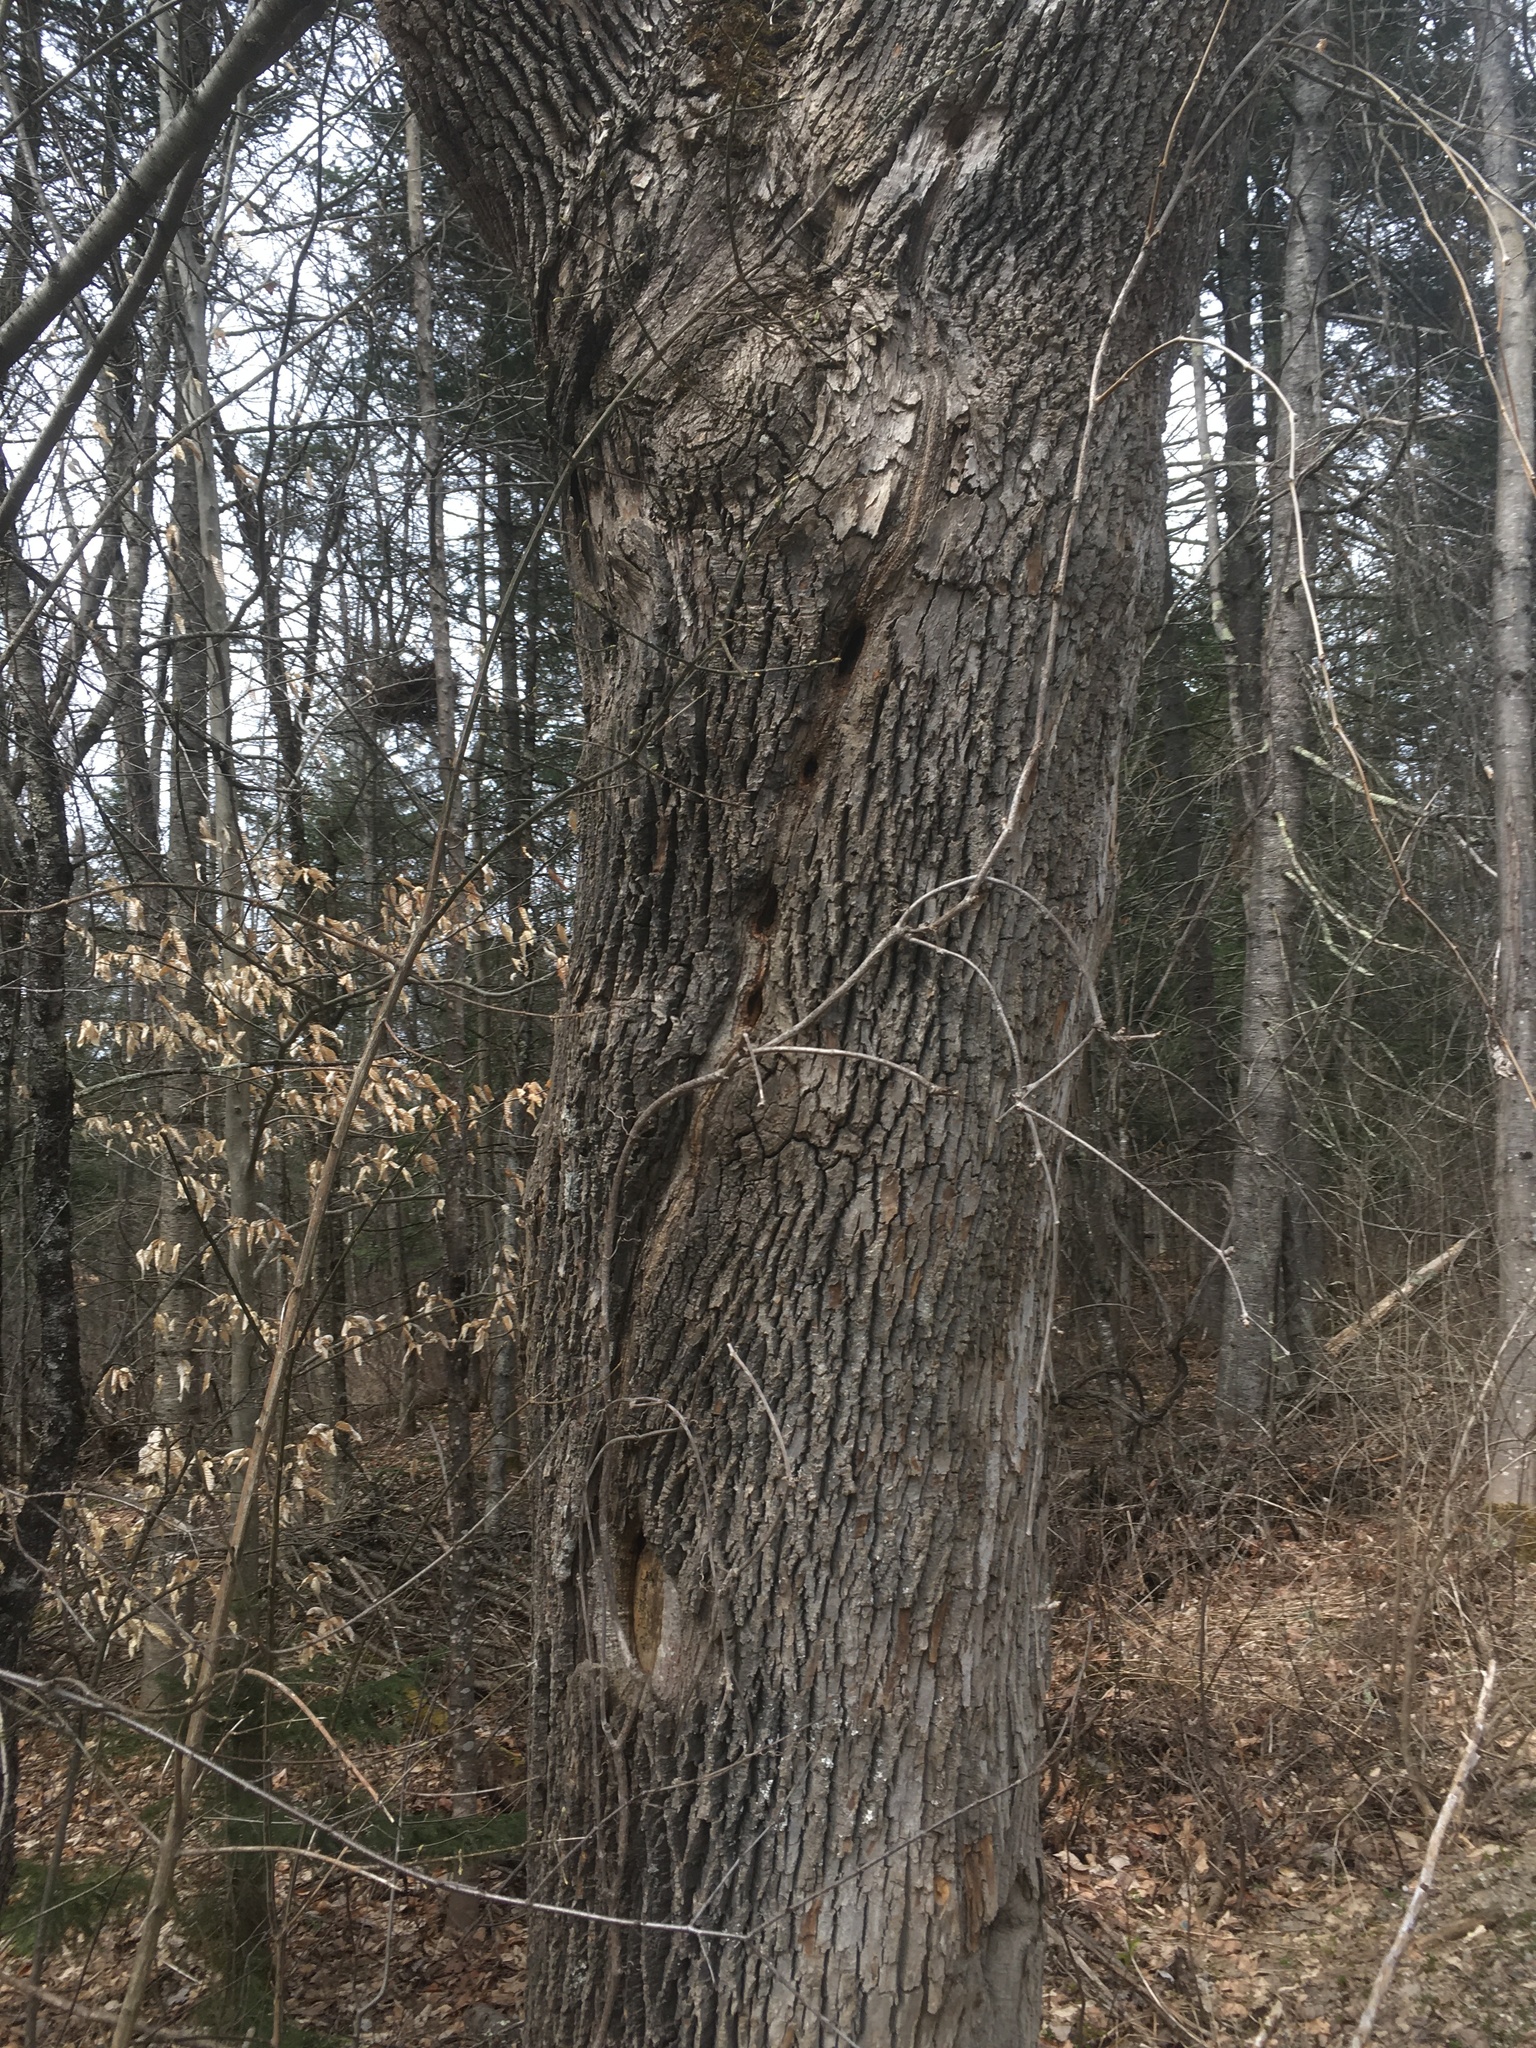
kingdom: Plantae
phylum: Tracheophyta
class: Magnoliopsida
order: Lamiales
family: Oleaceae
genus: Fraxinus
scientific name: Fraxinus americana
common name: White ash
